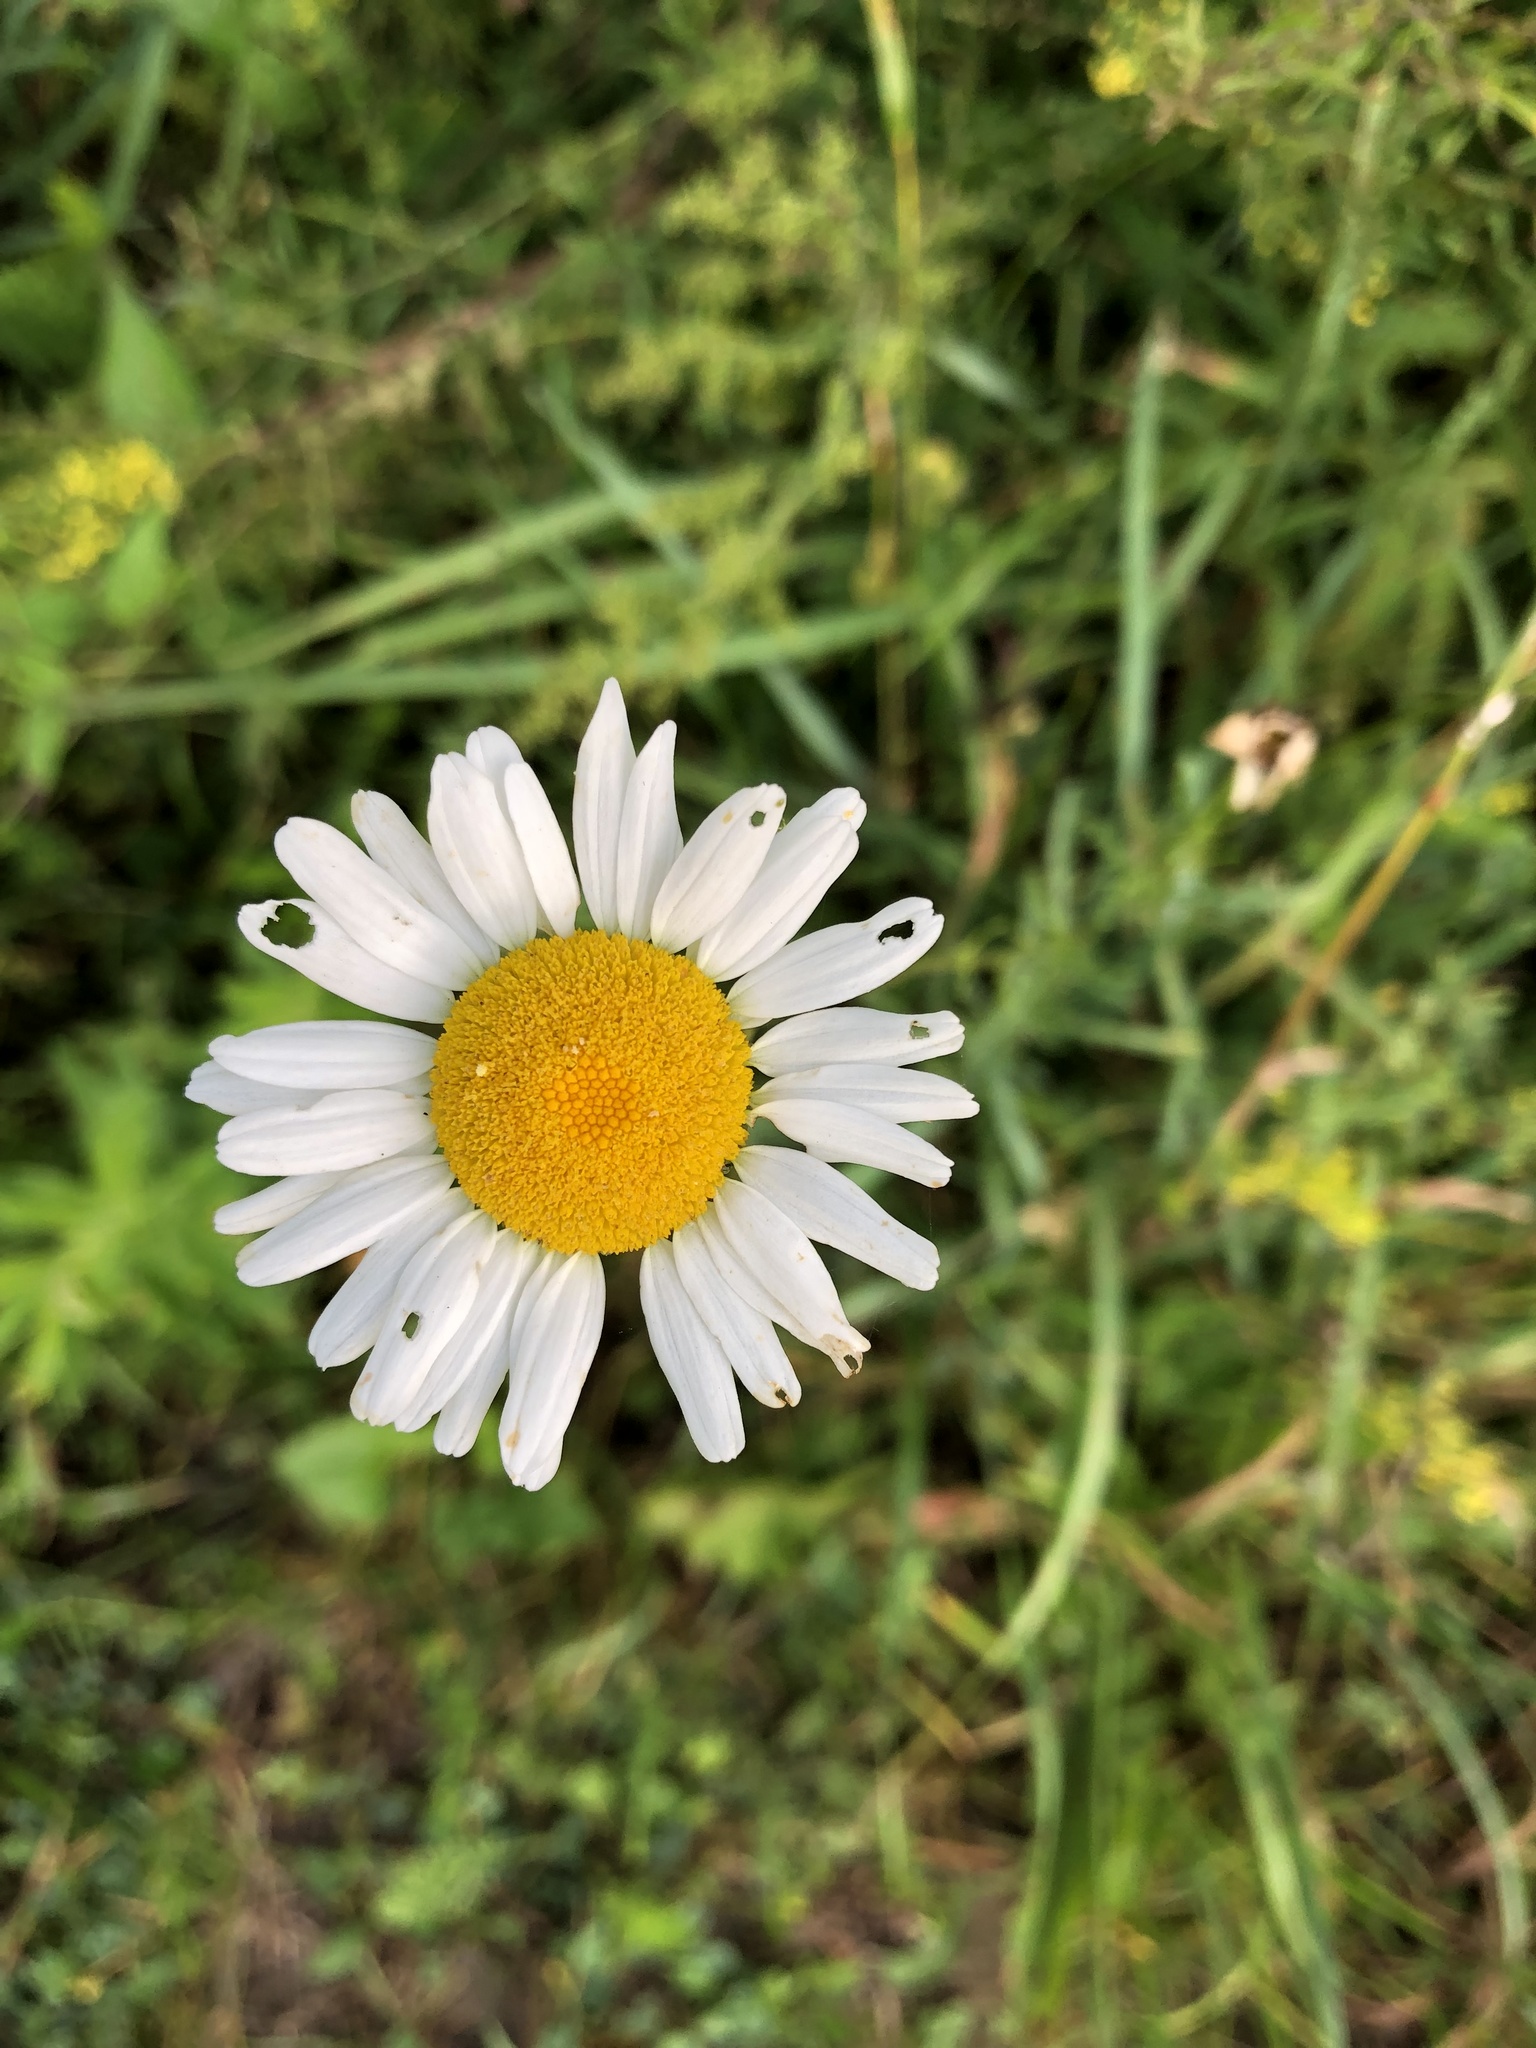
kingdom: Plantae
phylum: Tracheophyta
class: Magnoliopsida
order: Asterales
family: Asteraceae
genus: Leucanthemum
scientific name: Leucanthemum vulgare
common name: Oxeye daisy
